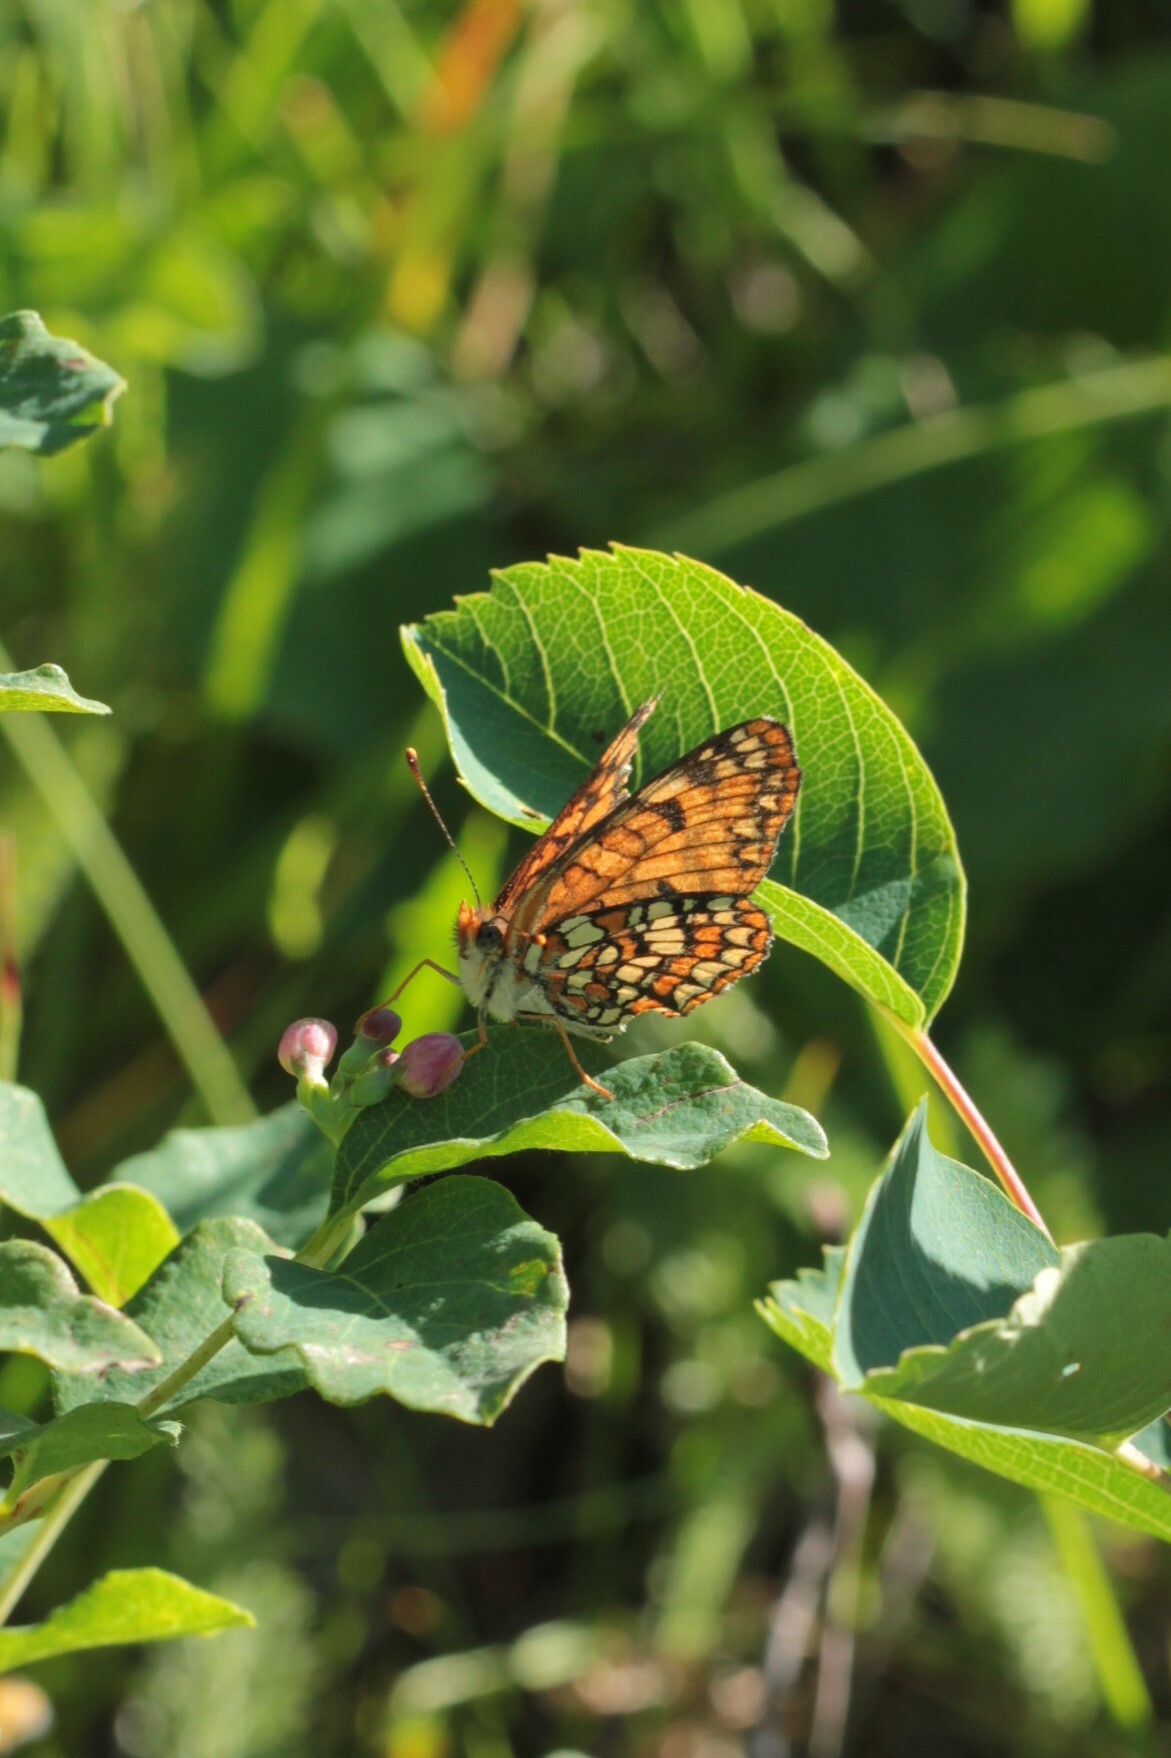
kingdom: Animalia
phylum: Arthropoda
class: Insecta
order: Lepidoptera
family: Nymphalidae
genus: Chlosyne
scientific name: Chlosyne palla
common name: Northern checkerspot
